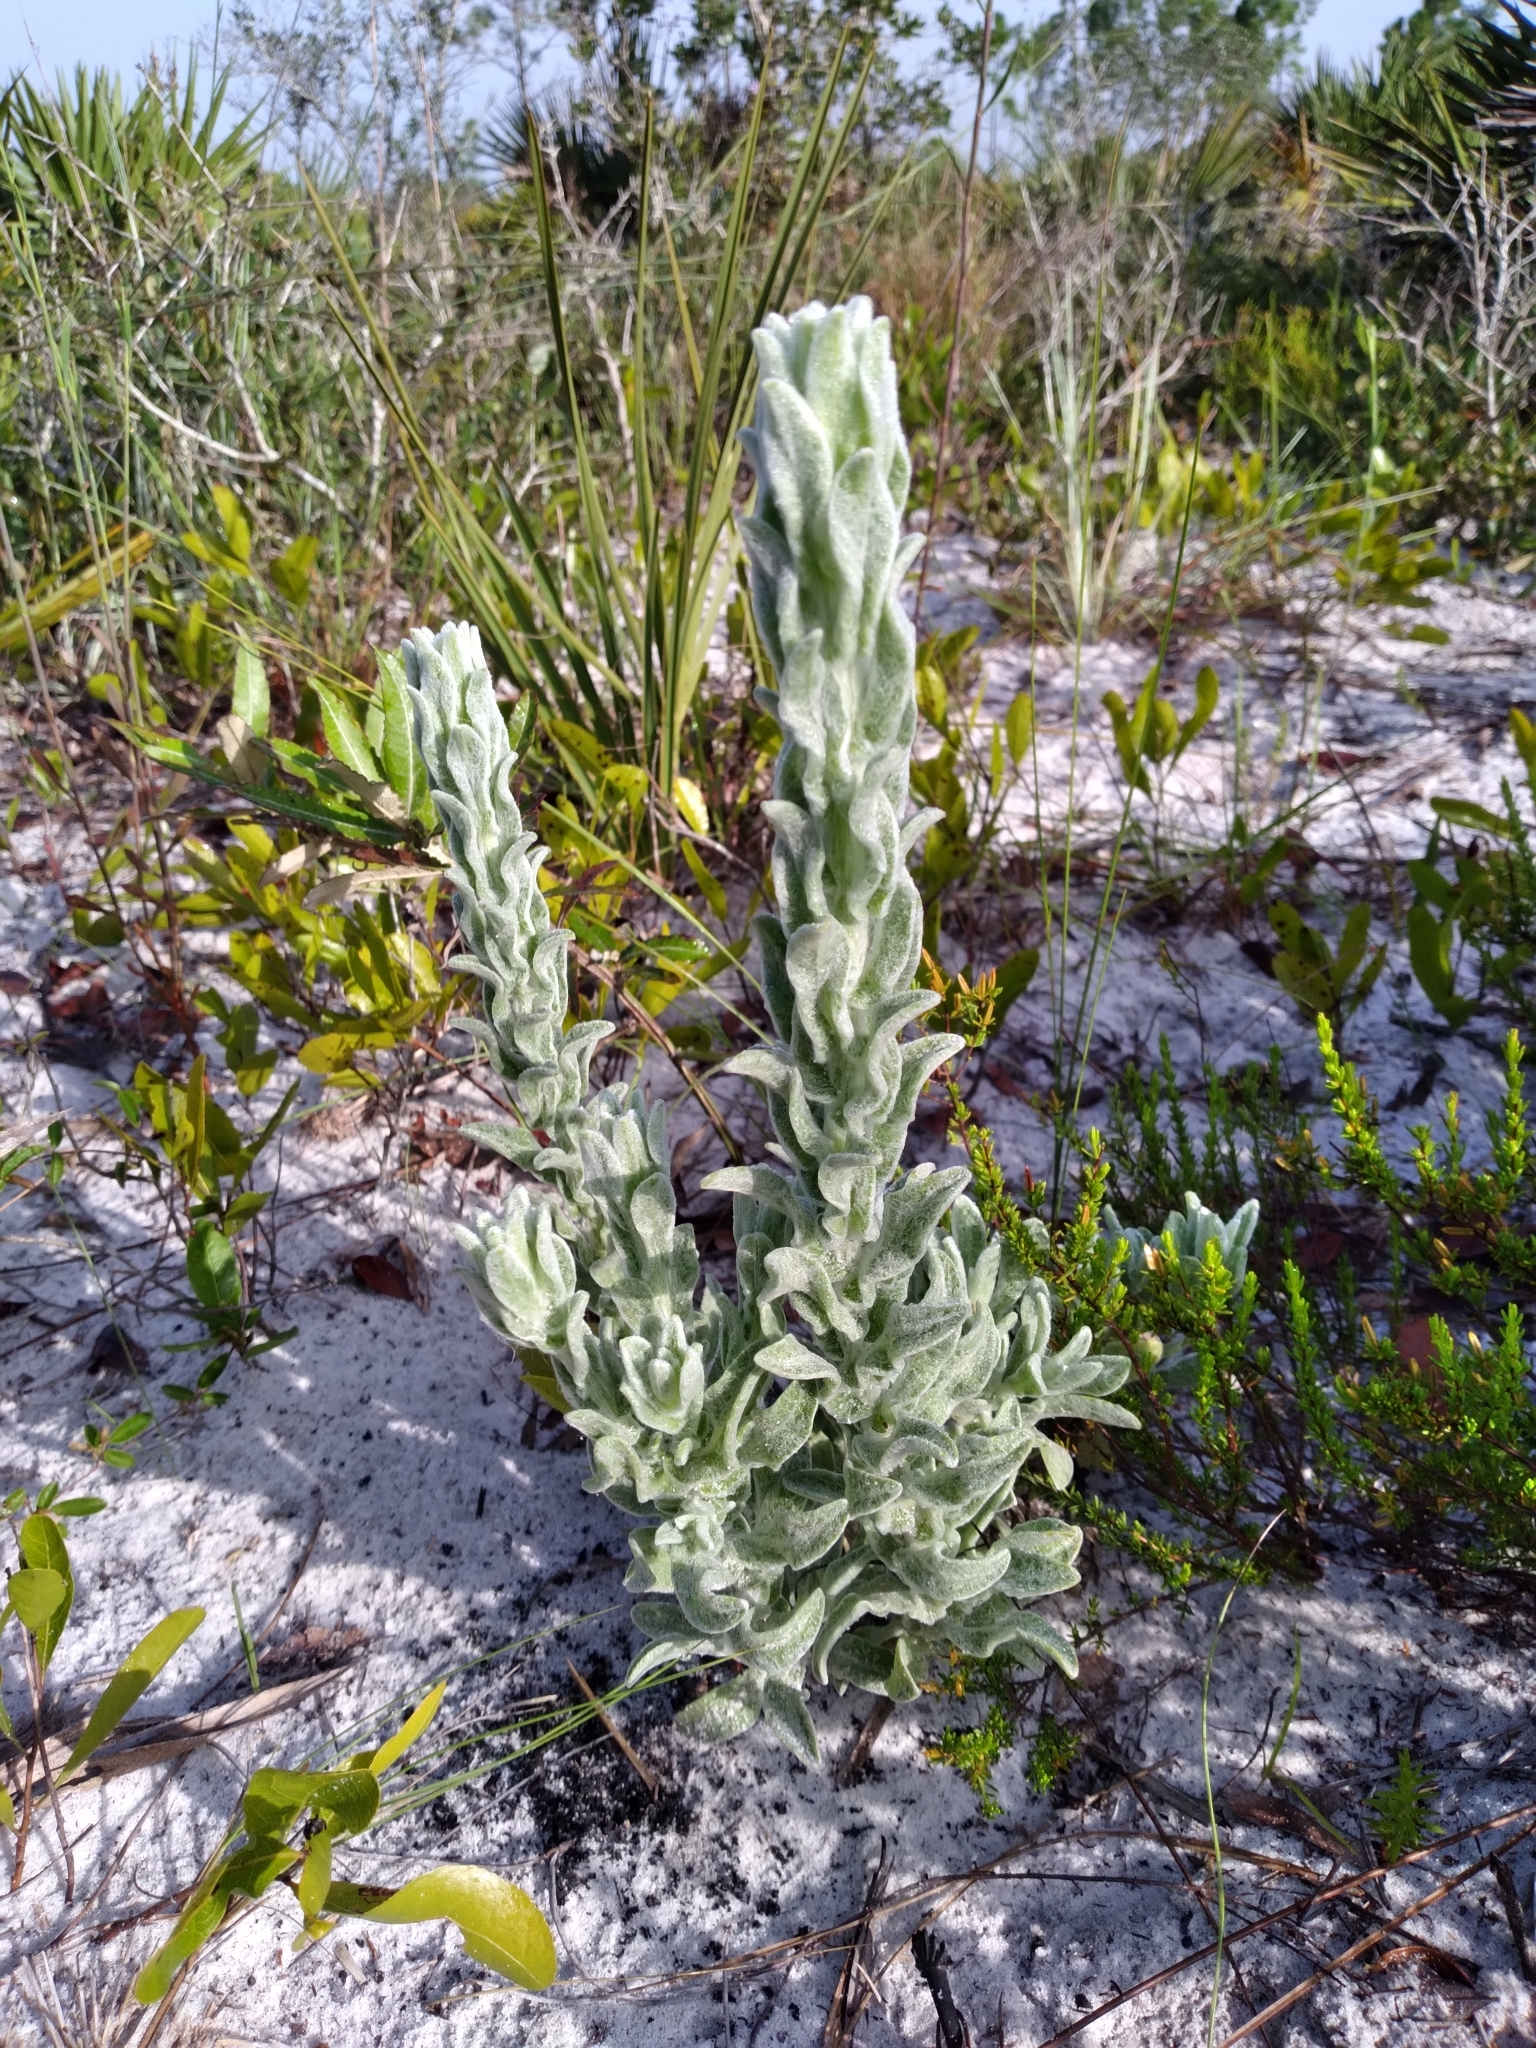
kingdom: Plantae
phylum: Tracheophyta
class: Magnoliopsida
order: Asterales
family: Asteraceae
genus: Chrysopsis
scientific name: Chrysopsis floridana
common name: Florida golden-aster
